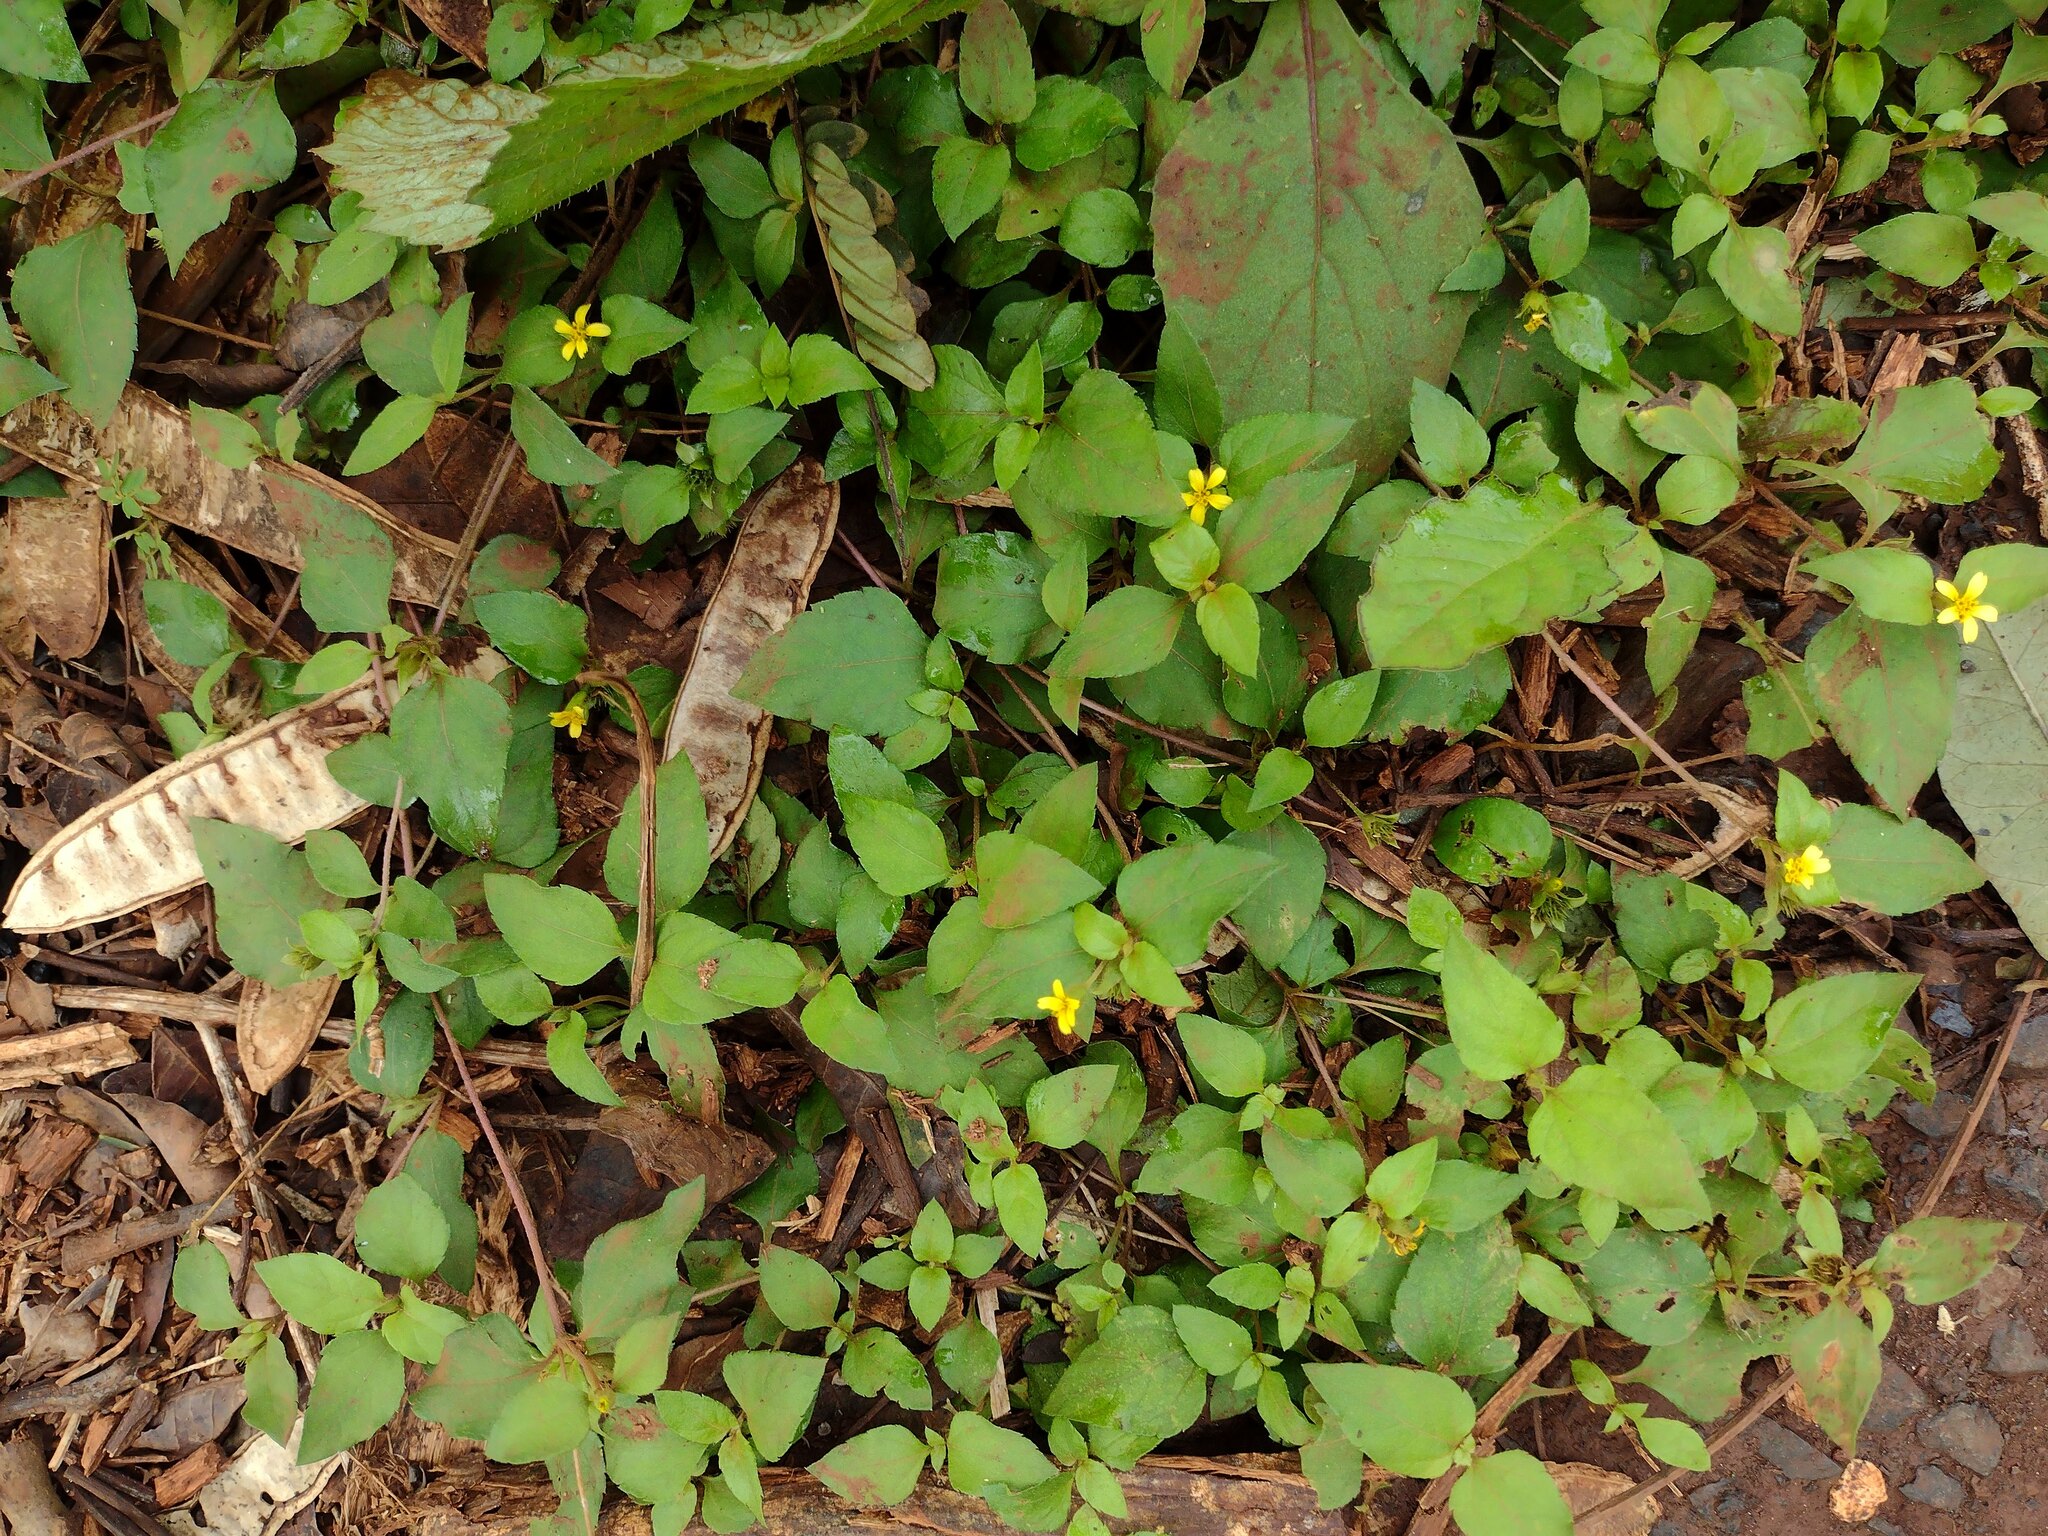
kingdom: Plantae
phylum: Tracheophyta
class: Magnoliopsida
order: Asterales
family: Asteraceae
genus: Calyptocarpus
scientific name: Calyptocarpus vialis
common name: Straggler daisy
